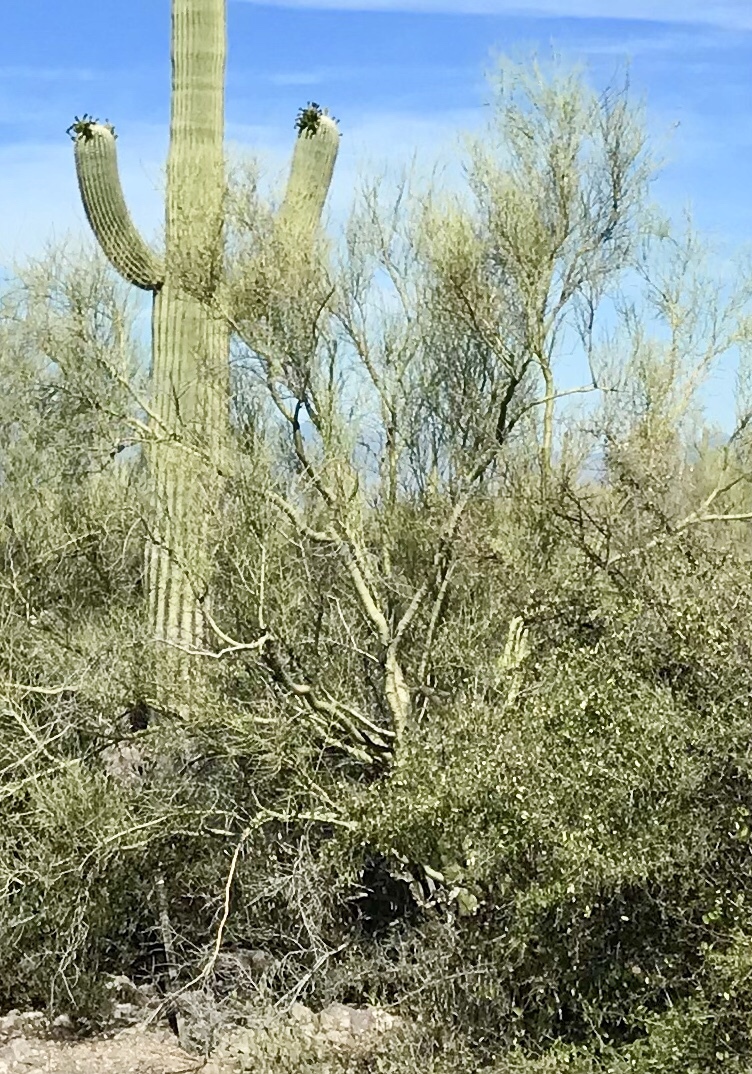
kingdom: Plantae
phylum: Tracheophyta
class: Magnoliopsida
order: Fabales
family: Fabaceae
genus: Parkinsonia
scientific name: Parkinsonia microphylla
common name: Yellow paloverde
